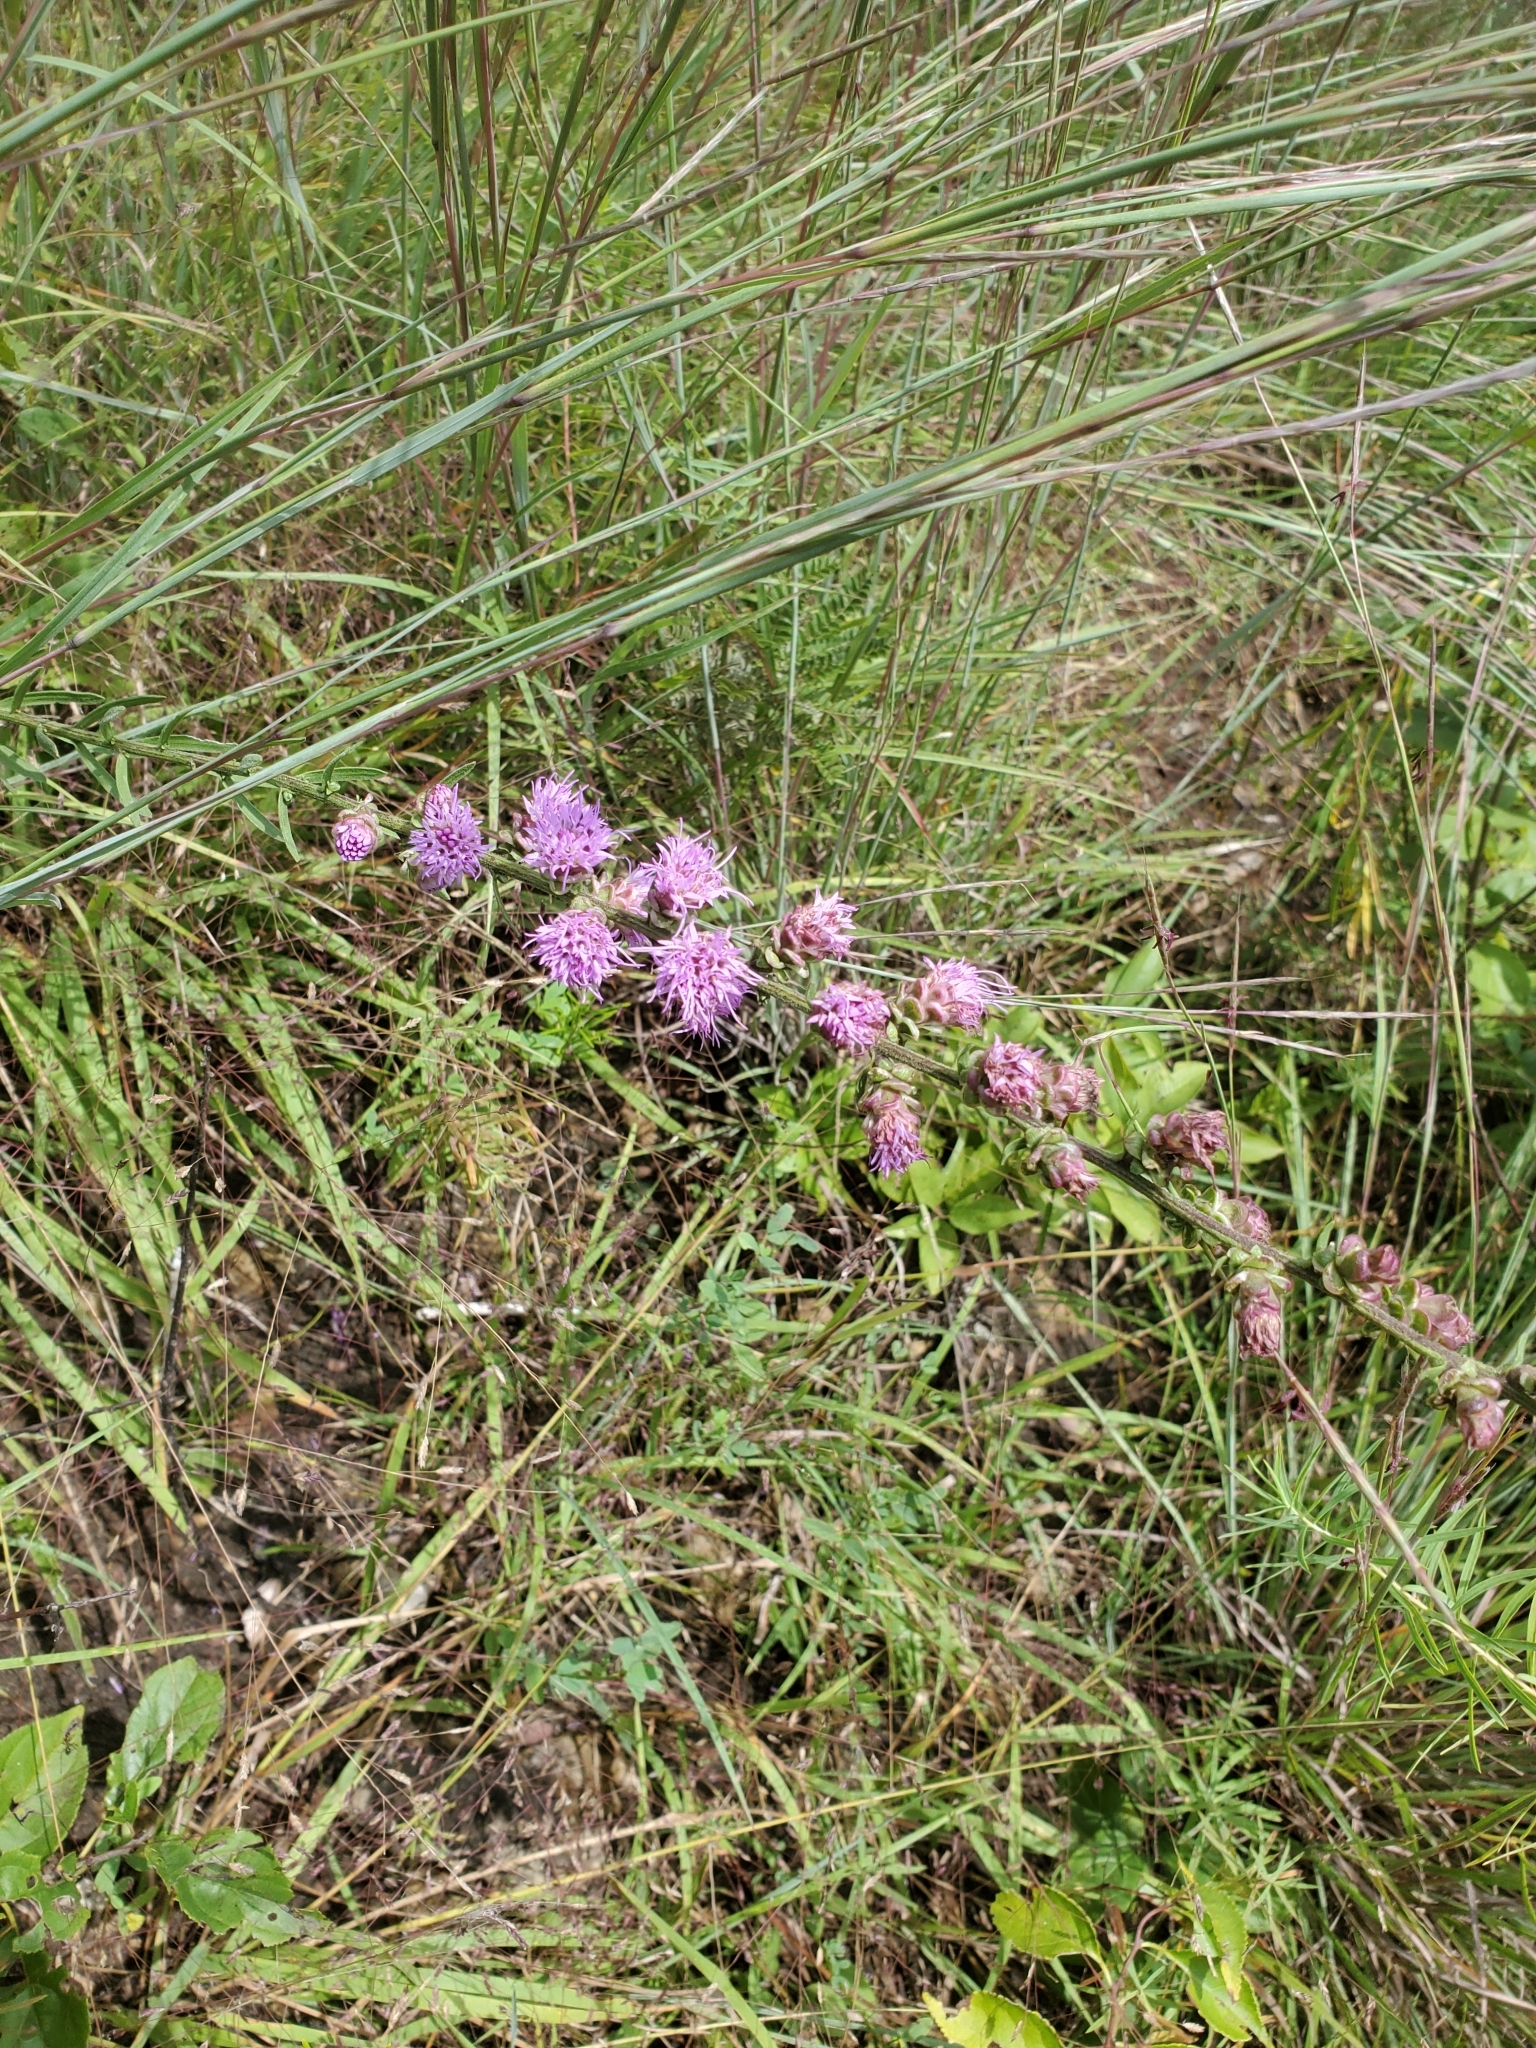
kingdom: Plantae
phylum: Tracheophyta
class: Magnoliopsida
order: Asterales
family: Asteraceae
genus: Liatris
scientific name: Liatris aspera
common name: Lacerate blazing-star
